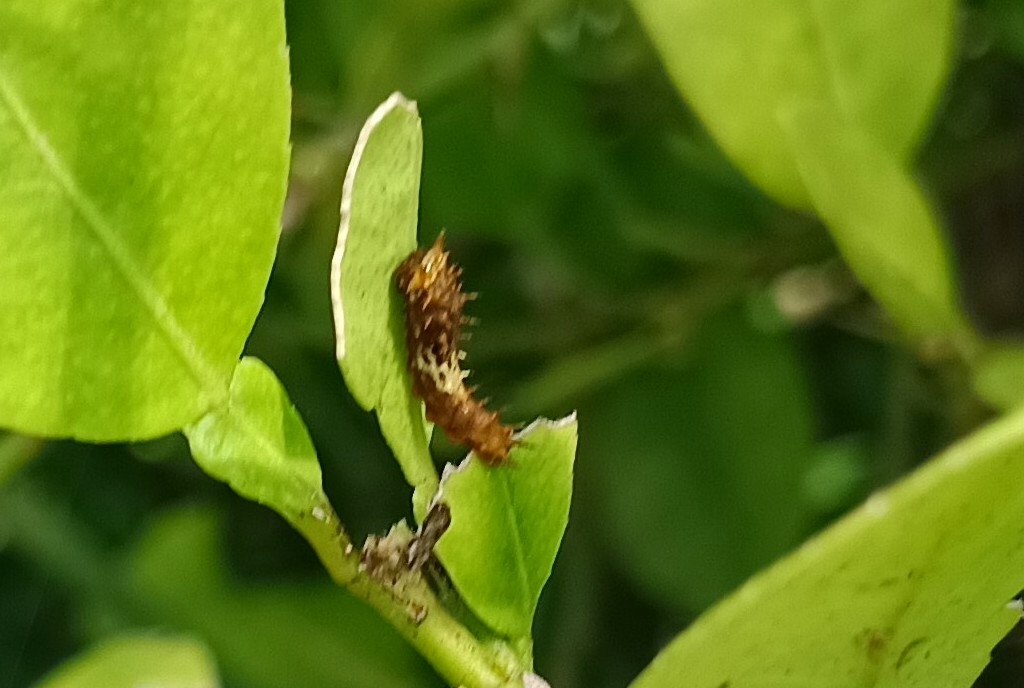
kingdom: Animalia
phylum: Arthropoda
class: Insecta
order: Lepidoptera
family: Papilionidae
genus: Papilio
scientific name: Papilio demoleus
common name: Lime butterfly
